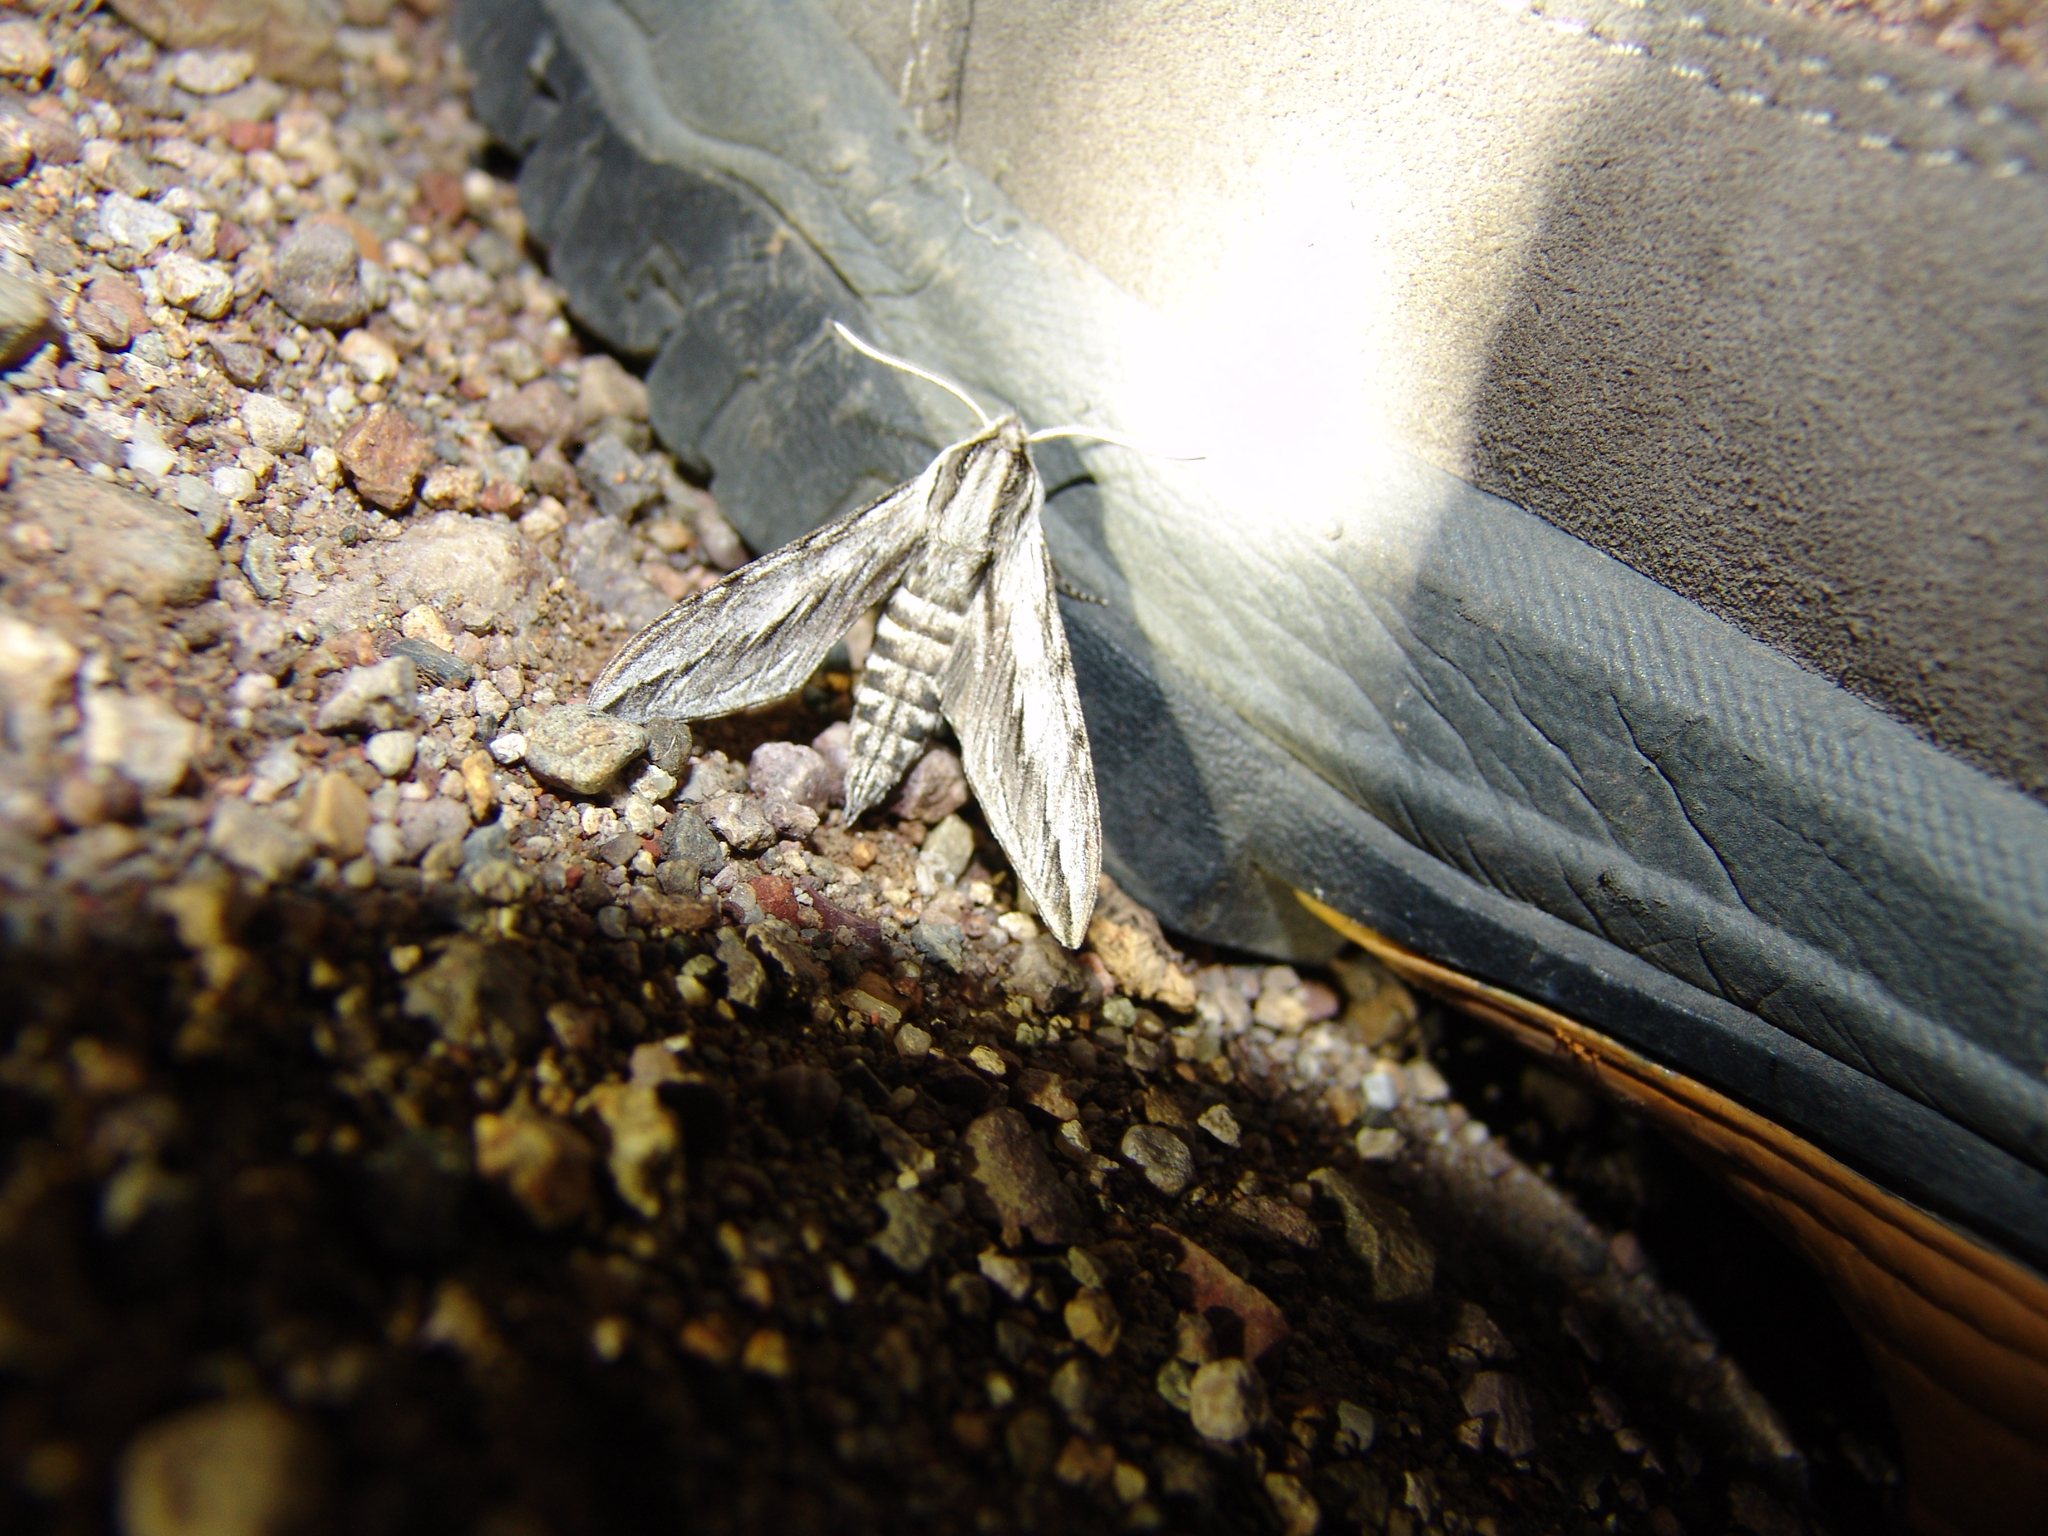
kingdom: Animalia
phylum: Arthropoda
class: Insecta
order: Lepidoptera
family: Sphingidae
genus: Sphinx
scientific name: Sphinx dollii
